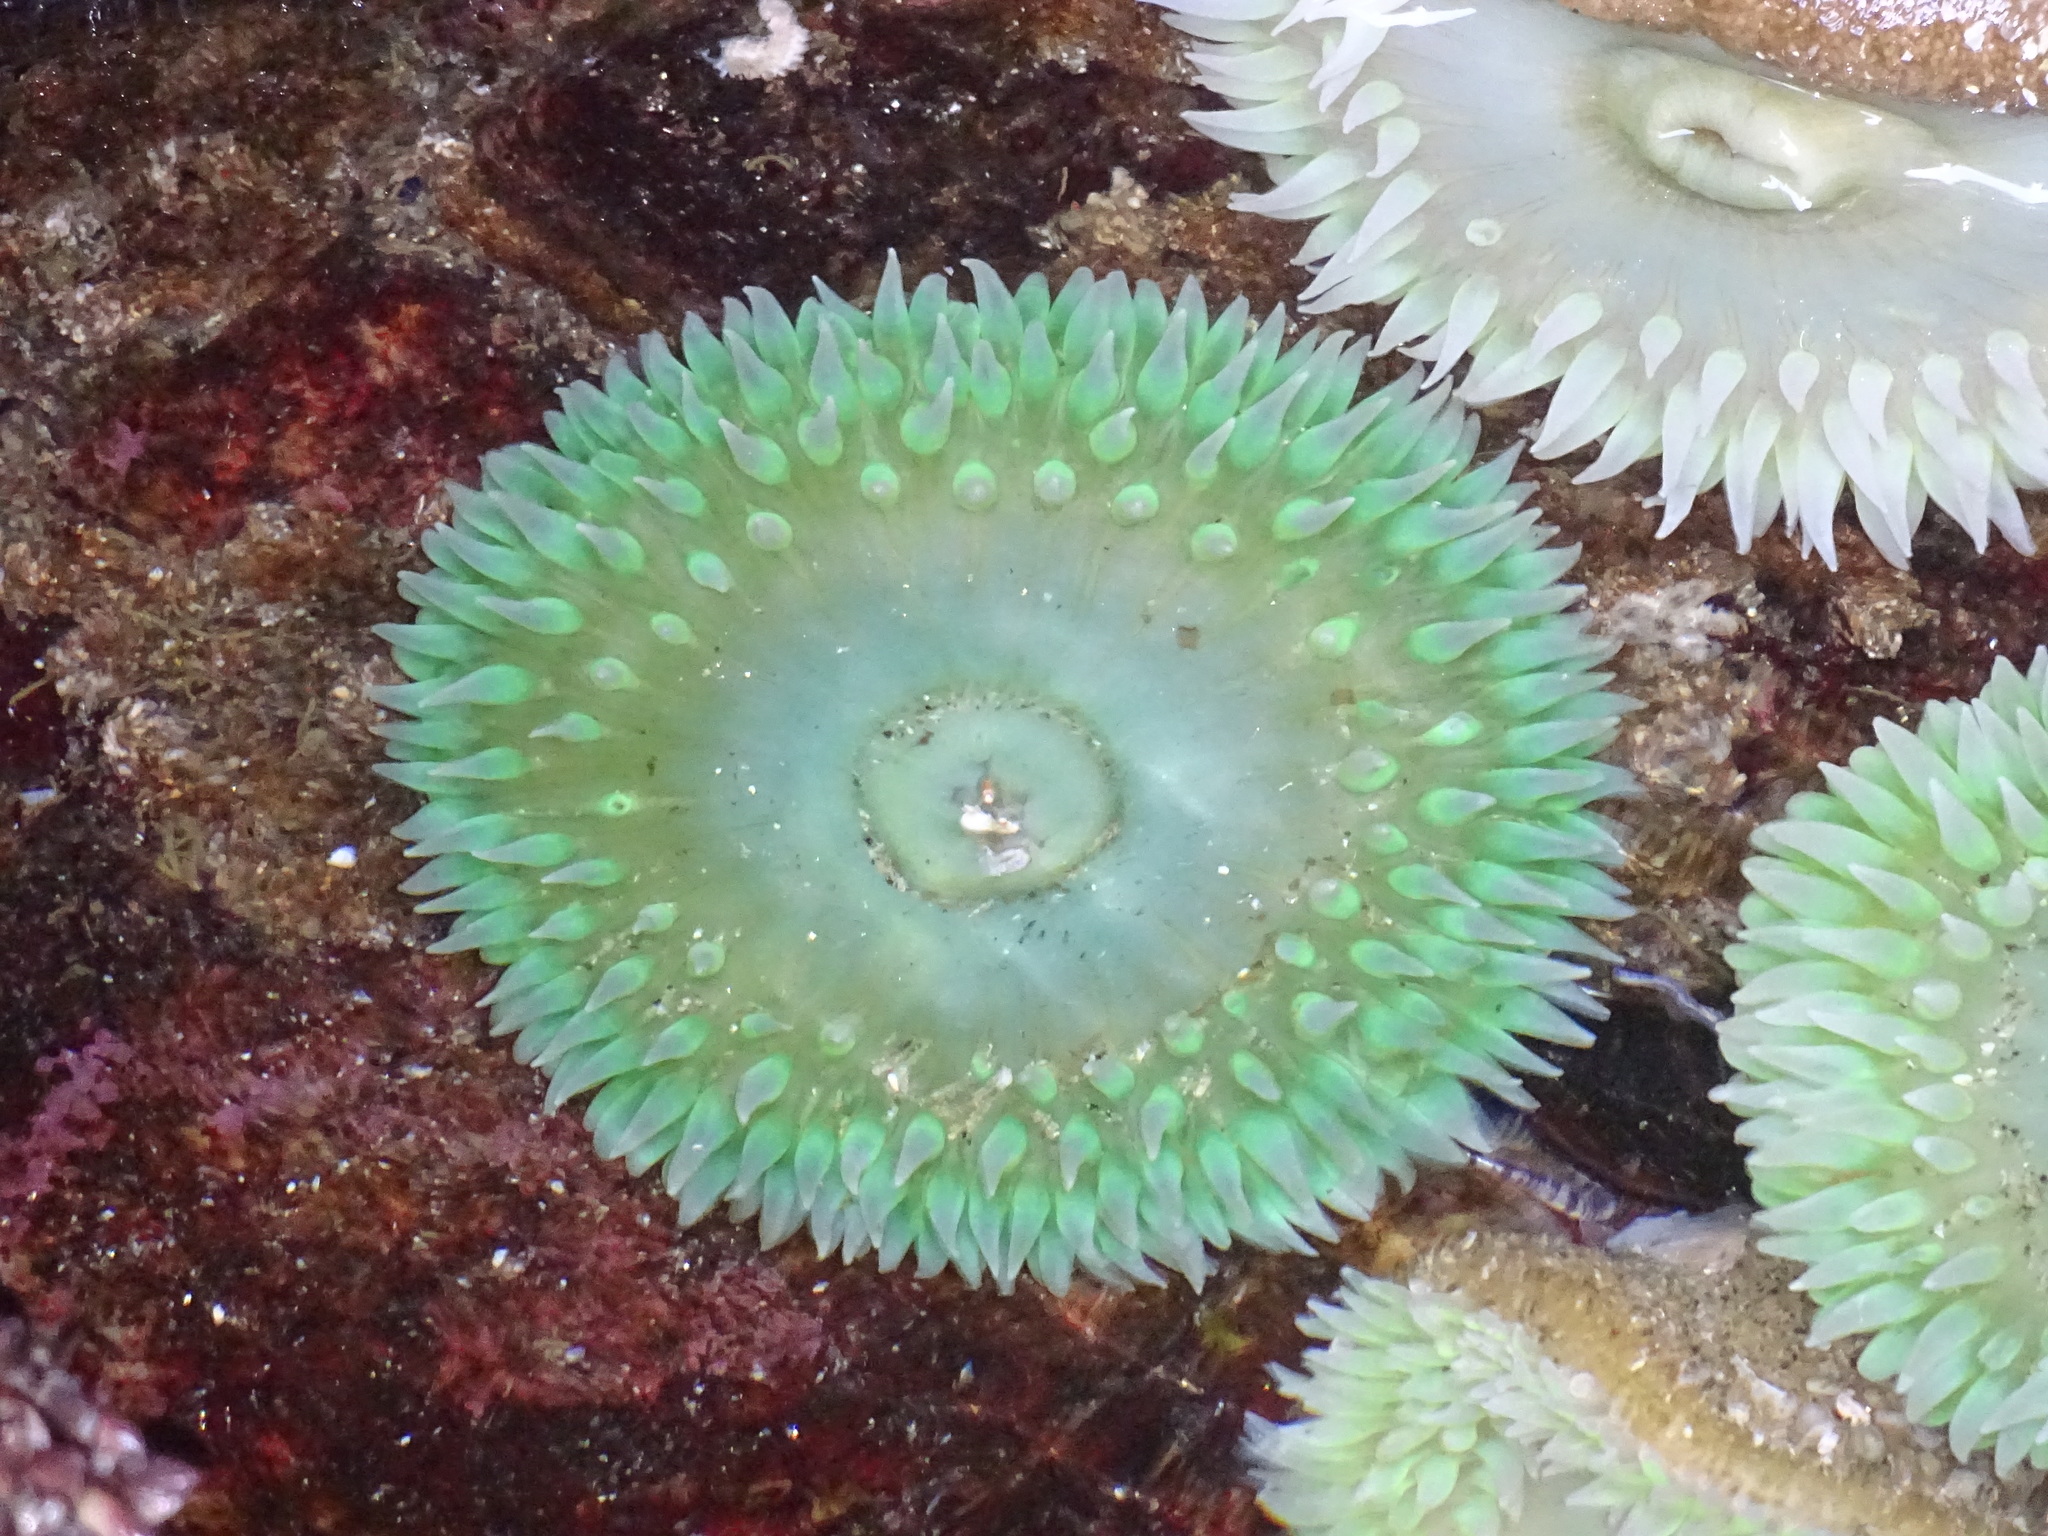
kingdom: Animalia
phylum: Cnidaria
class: Anthozoa
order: Actiniaria
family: Actiniidae
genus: Anthopleura
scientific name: Anthopleura xanthogrammica
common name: Giant green anemone
